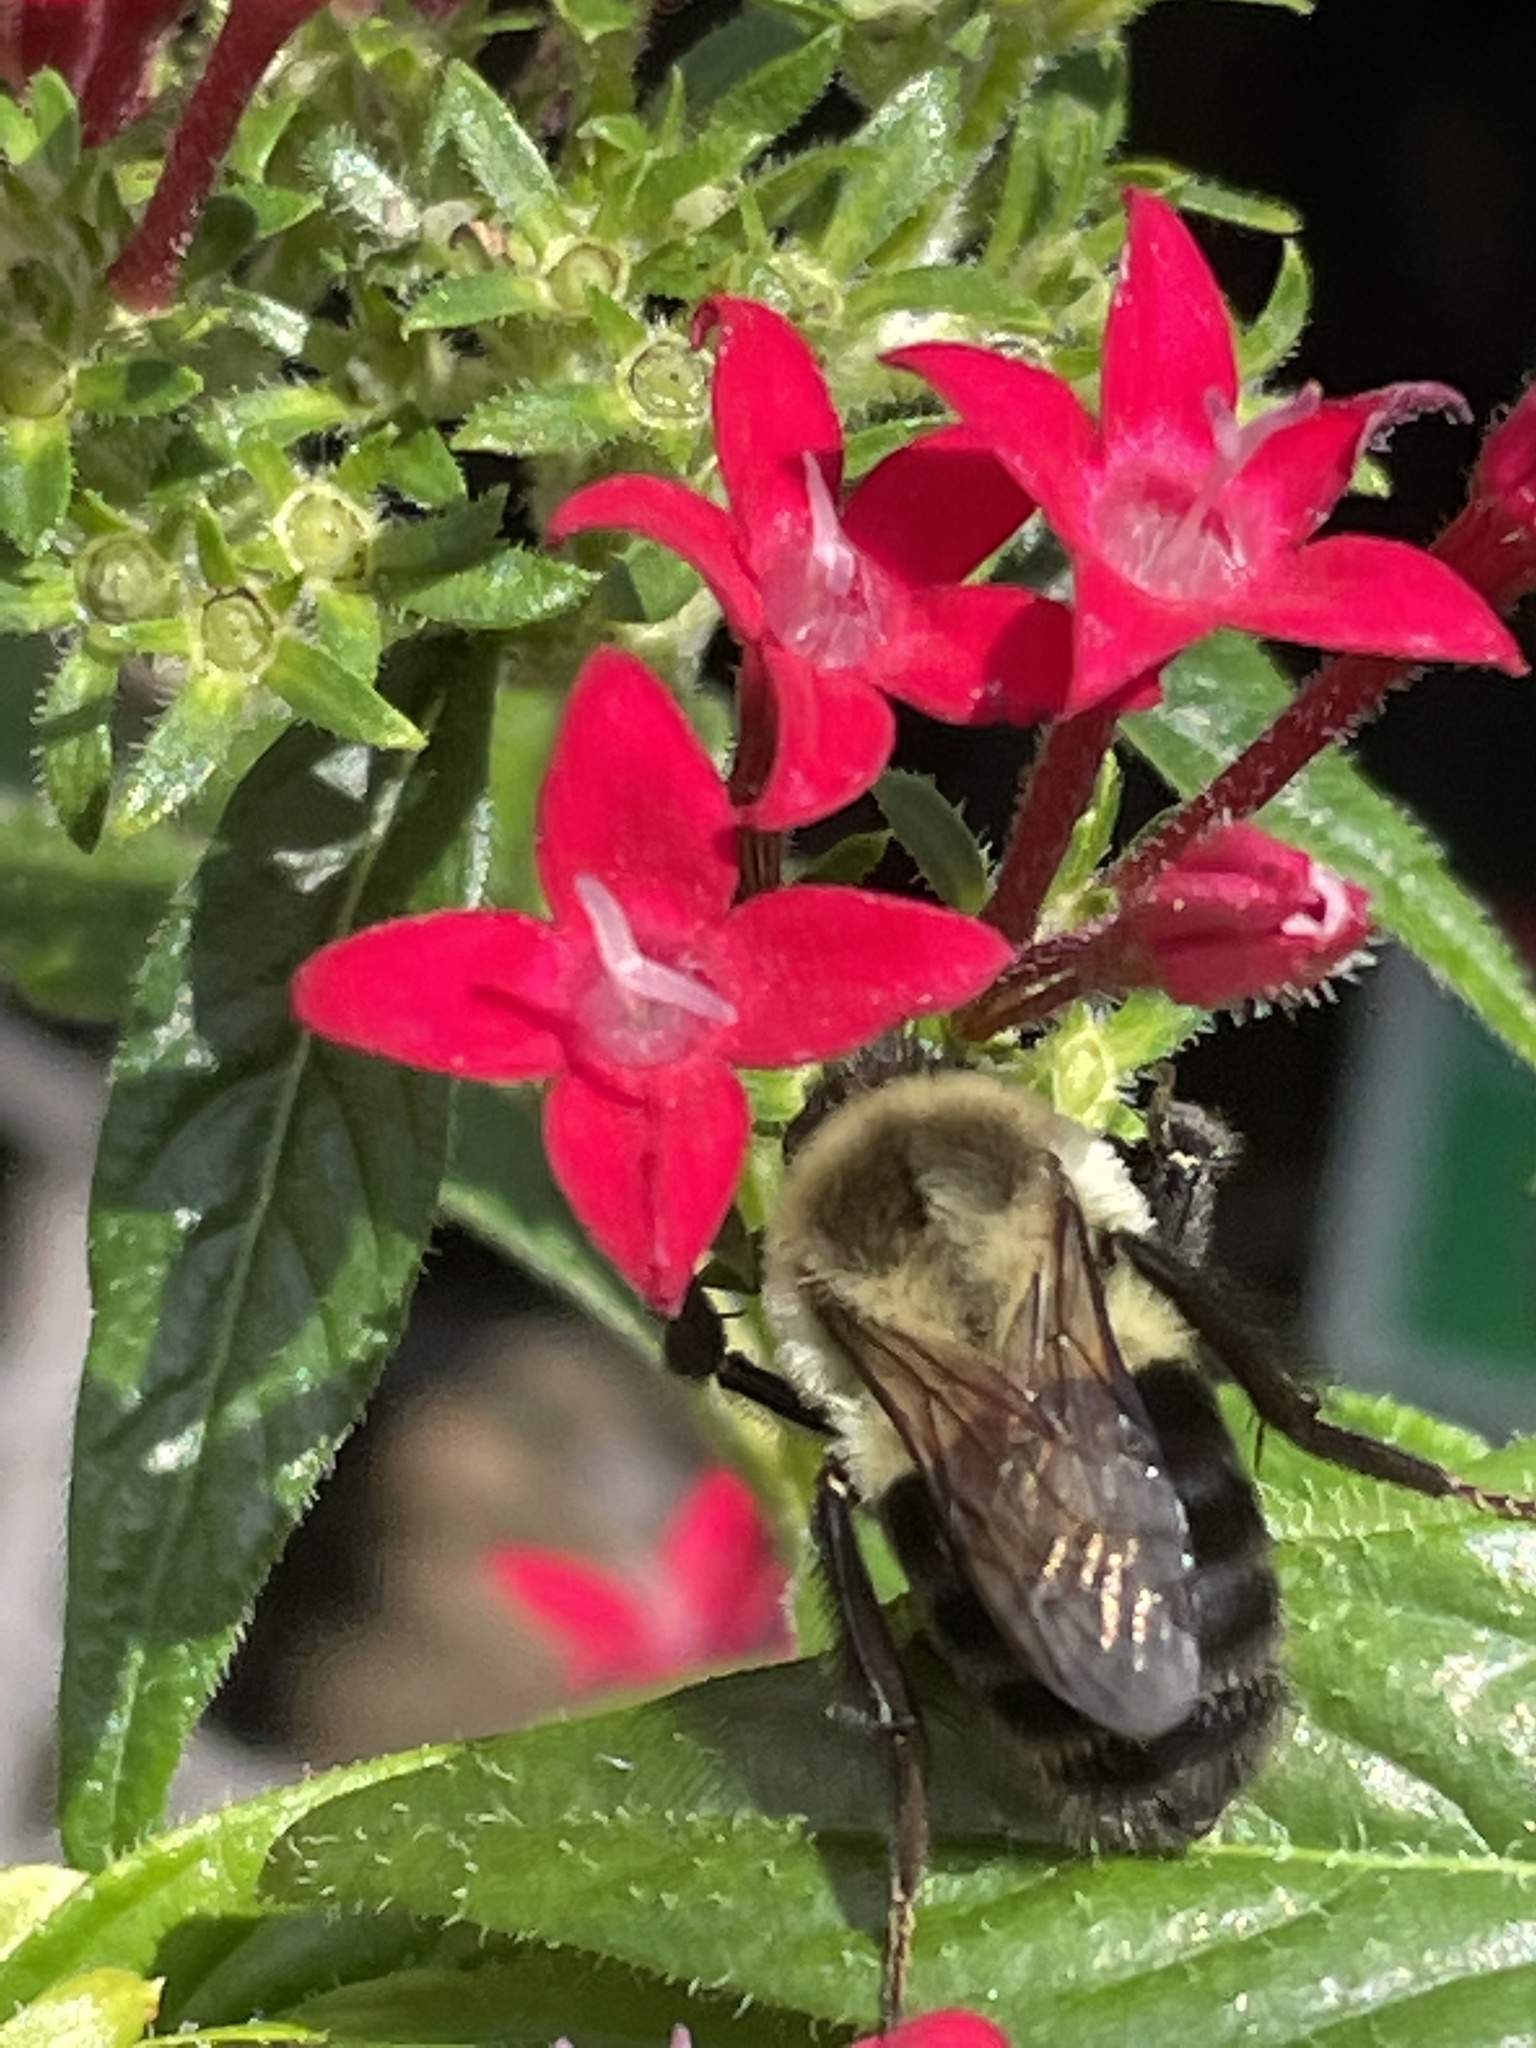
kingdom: Animalia
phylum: Arthropoda
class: Insecta
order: Hymenoptera
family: Apidae
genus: Bombus
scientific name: Bombus impatiens
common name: Common eastern bumble bee
